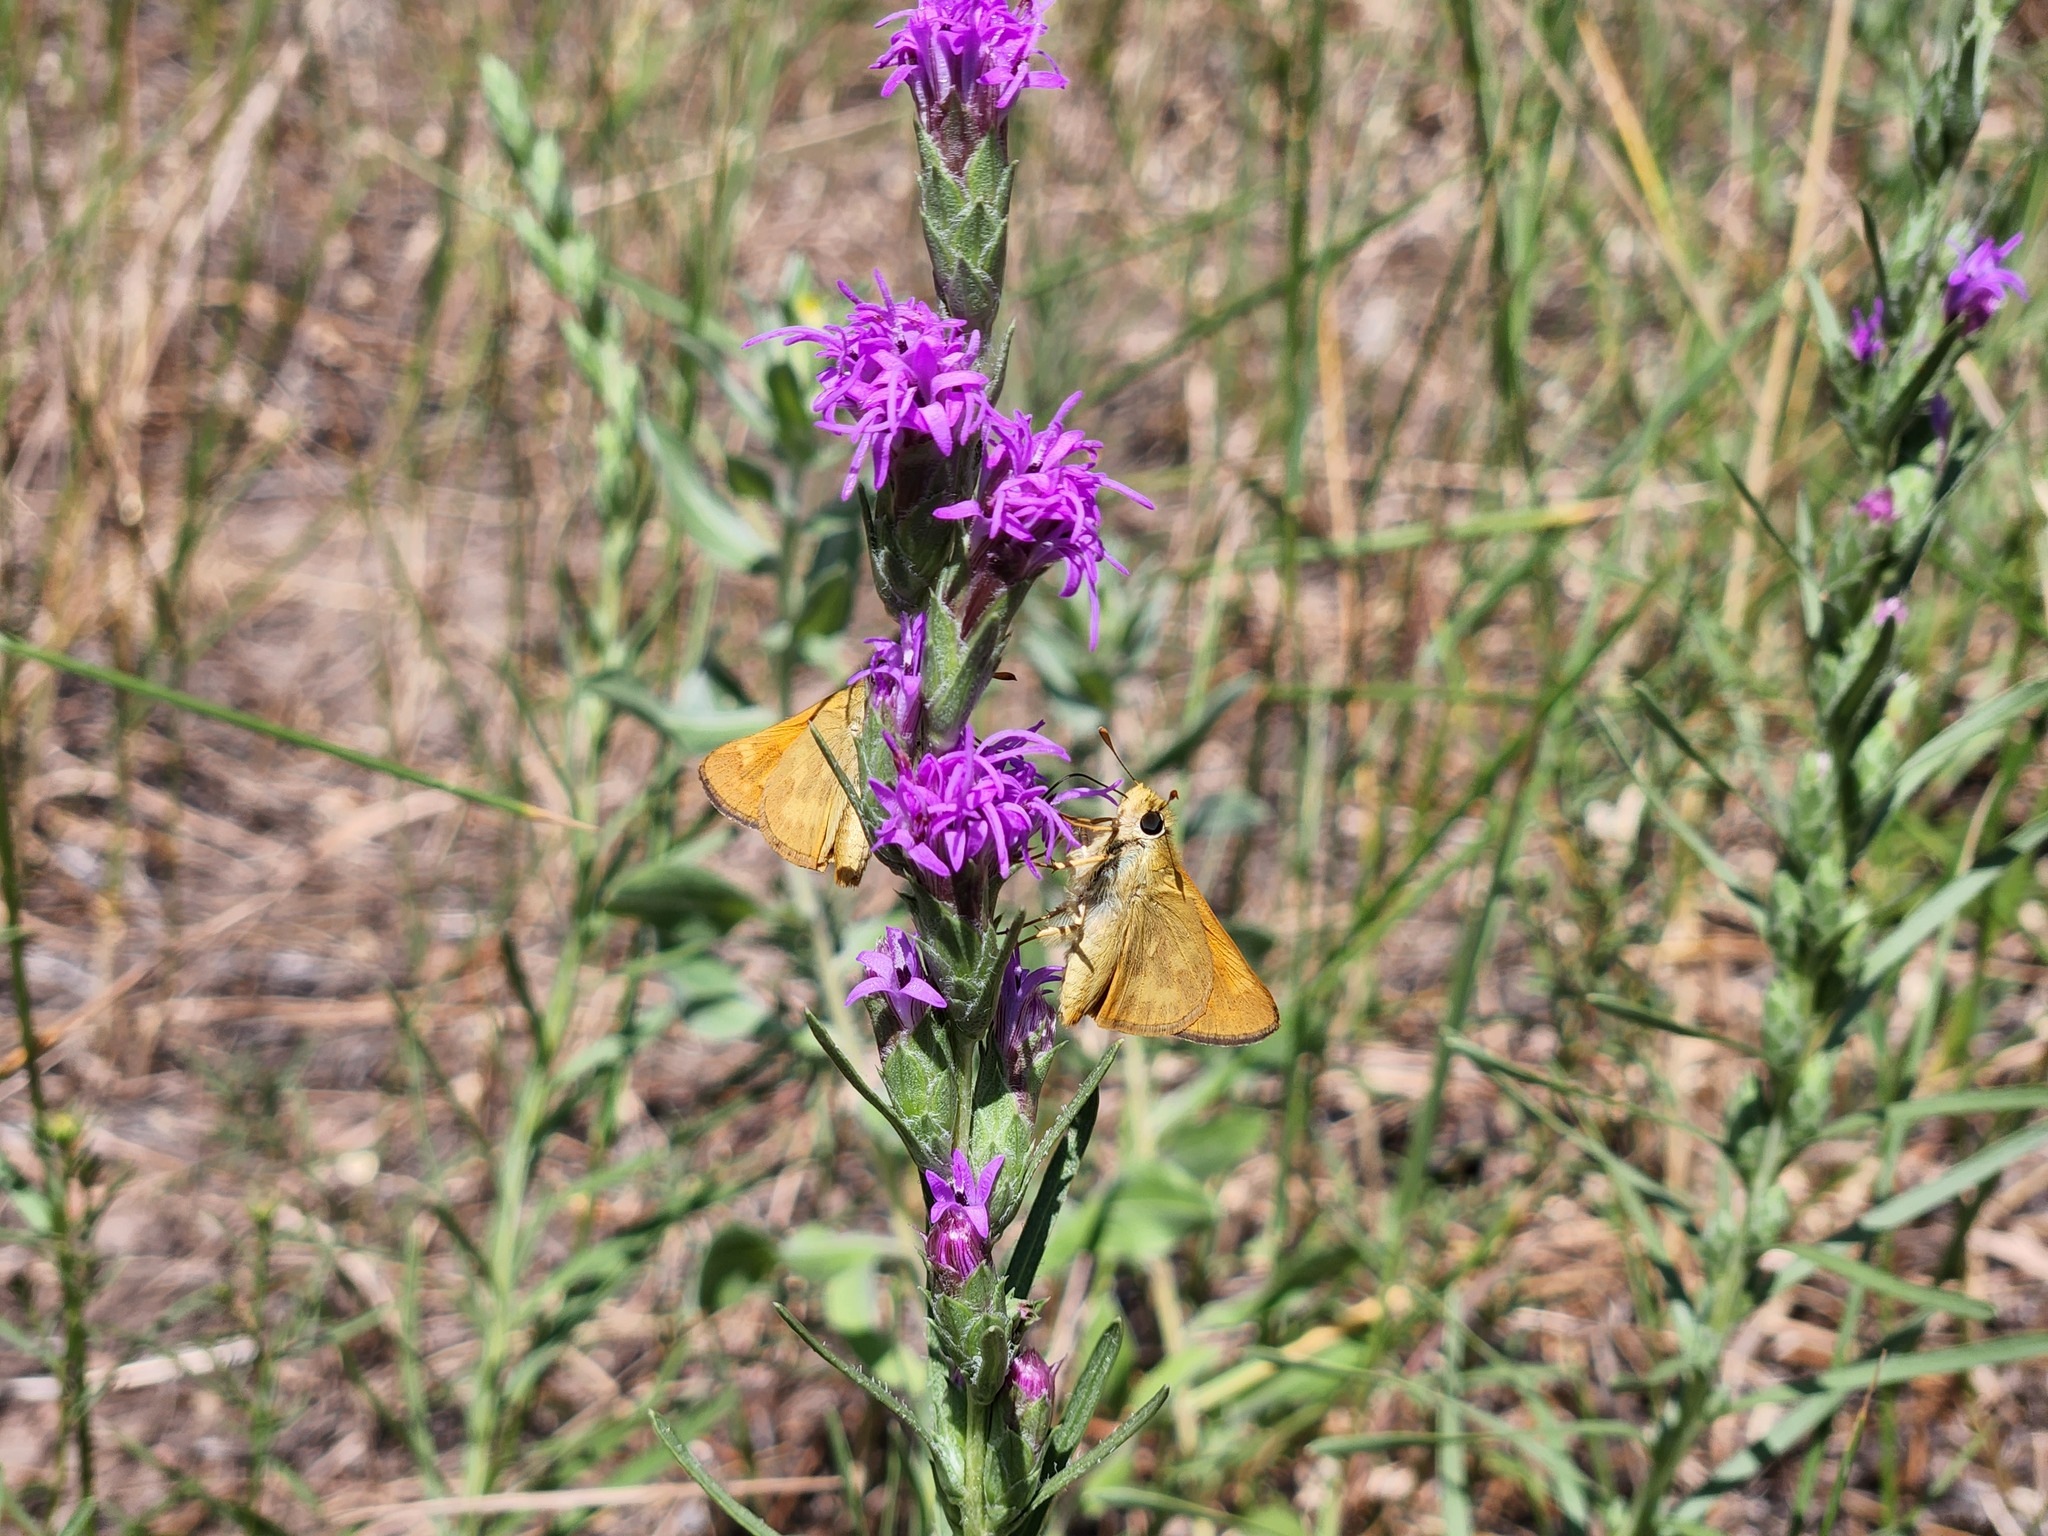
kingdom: Animalia
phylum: Arthropoda
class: Insecta
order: Lepidoptera
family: Hesperiidae
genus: Ochlodes
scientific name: Ochlodes sylvanoides
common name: Woodland skipper
